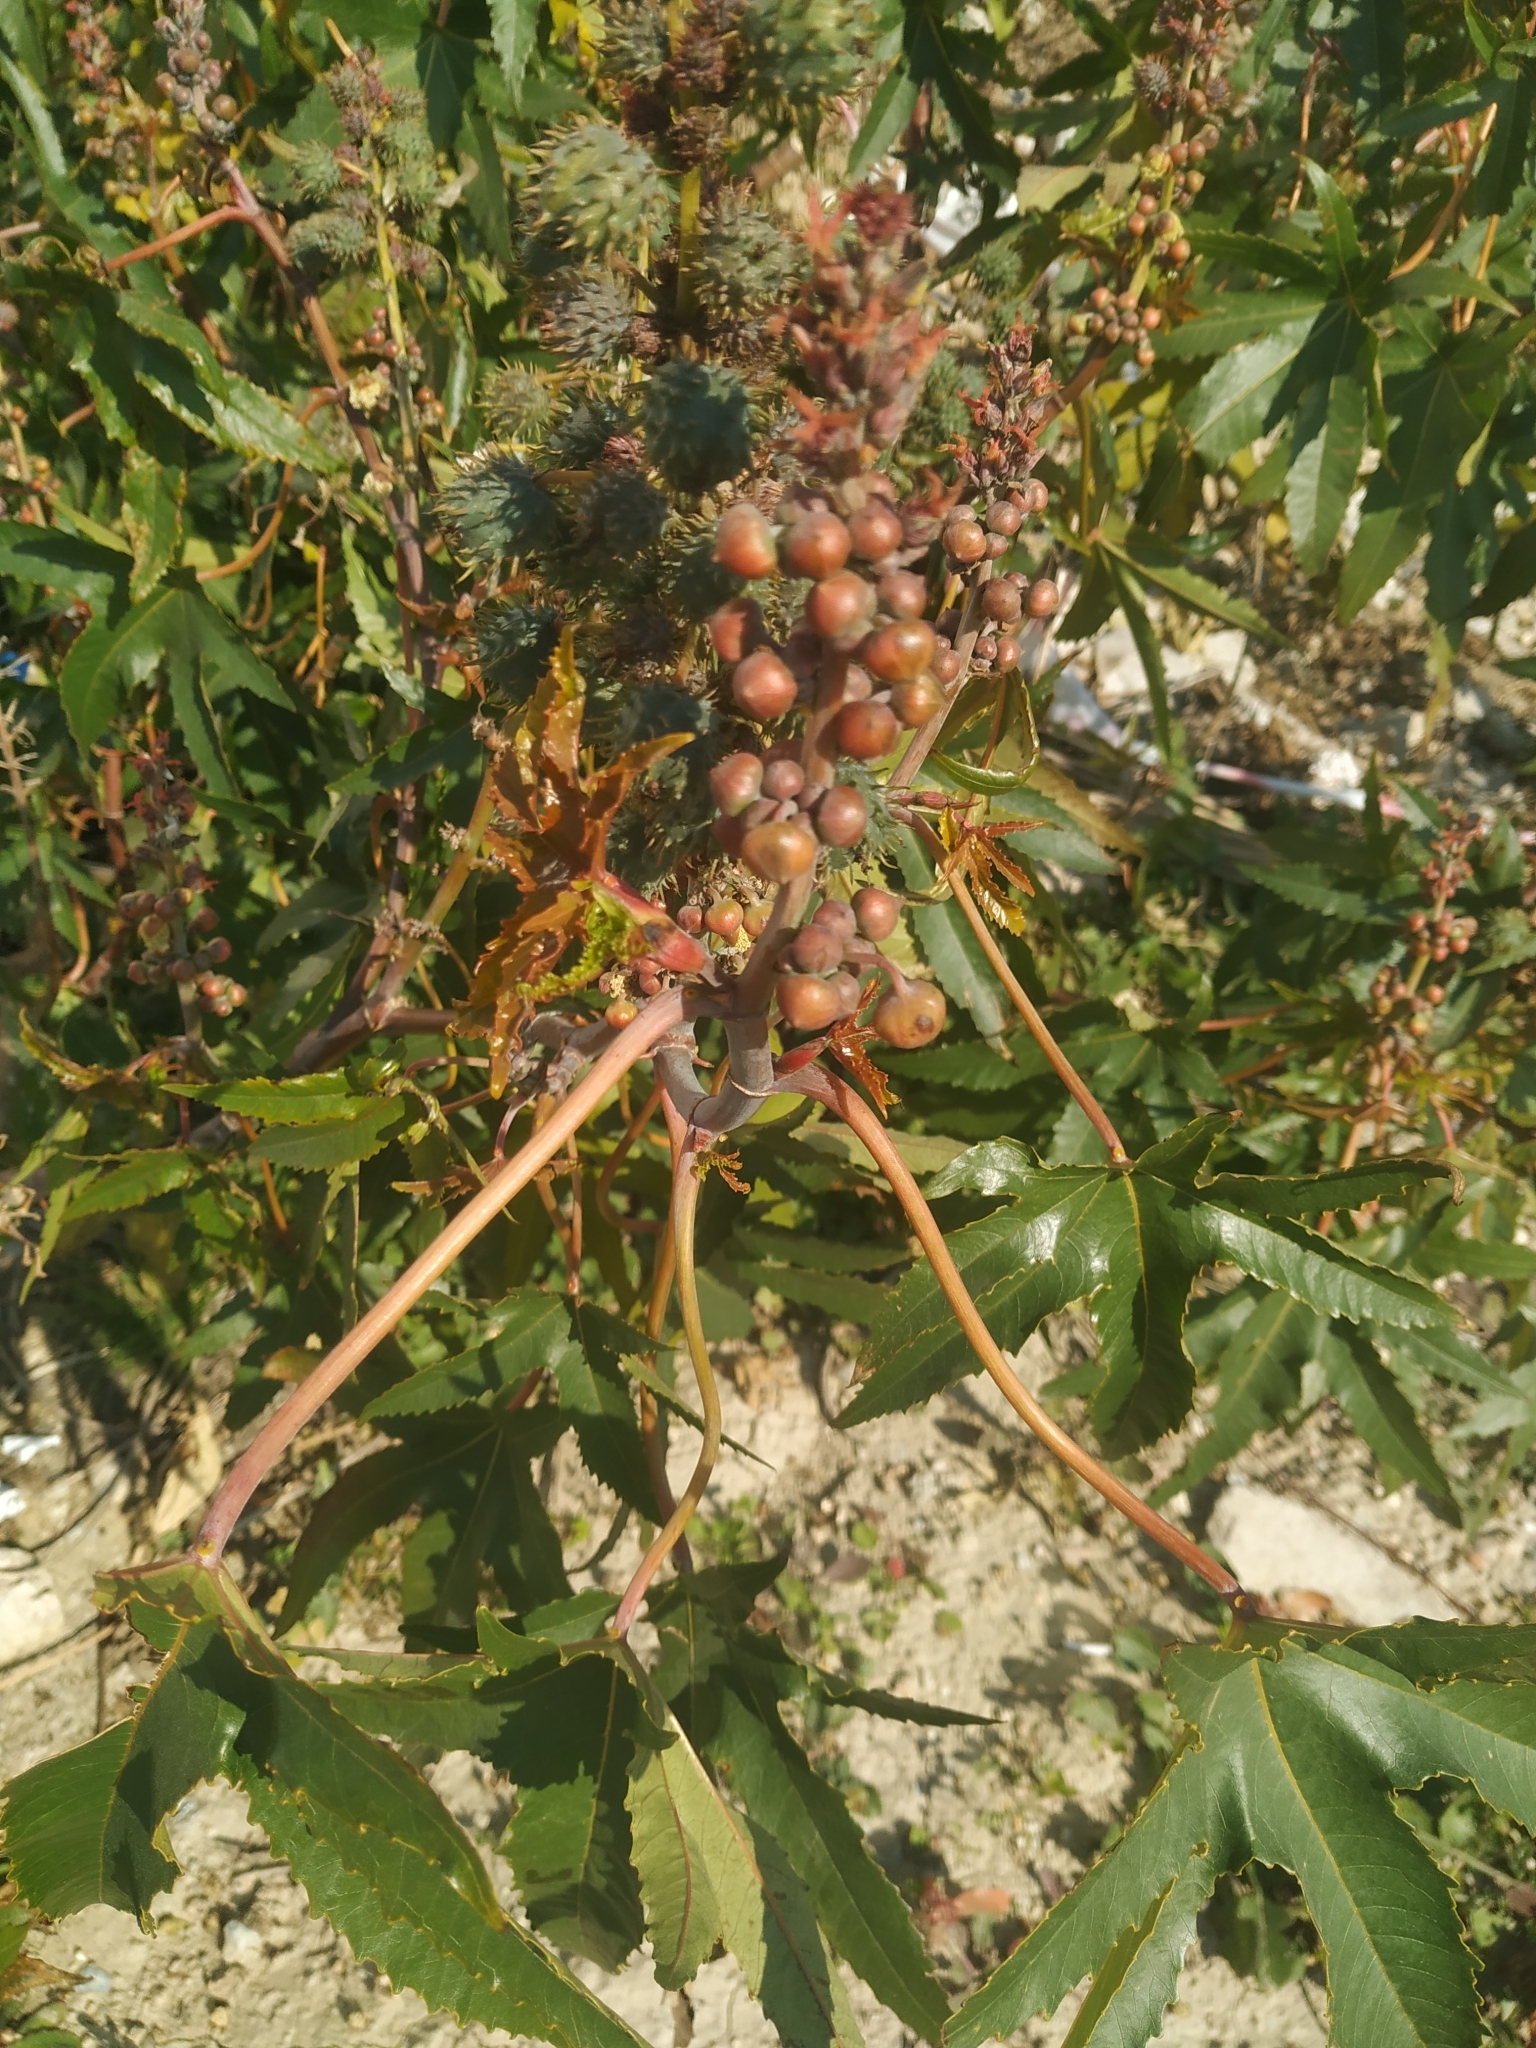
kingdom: Plantae
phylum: Tracheophyta
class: Magnoliopsida
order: Malpighiales
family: Euphorbiaceae
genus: Ricinus
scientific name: Ricinus communis
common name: Castor-oil-plant
